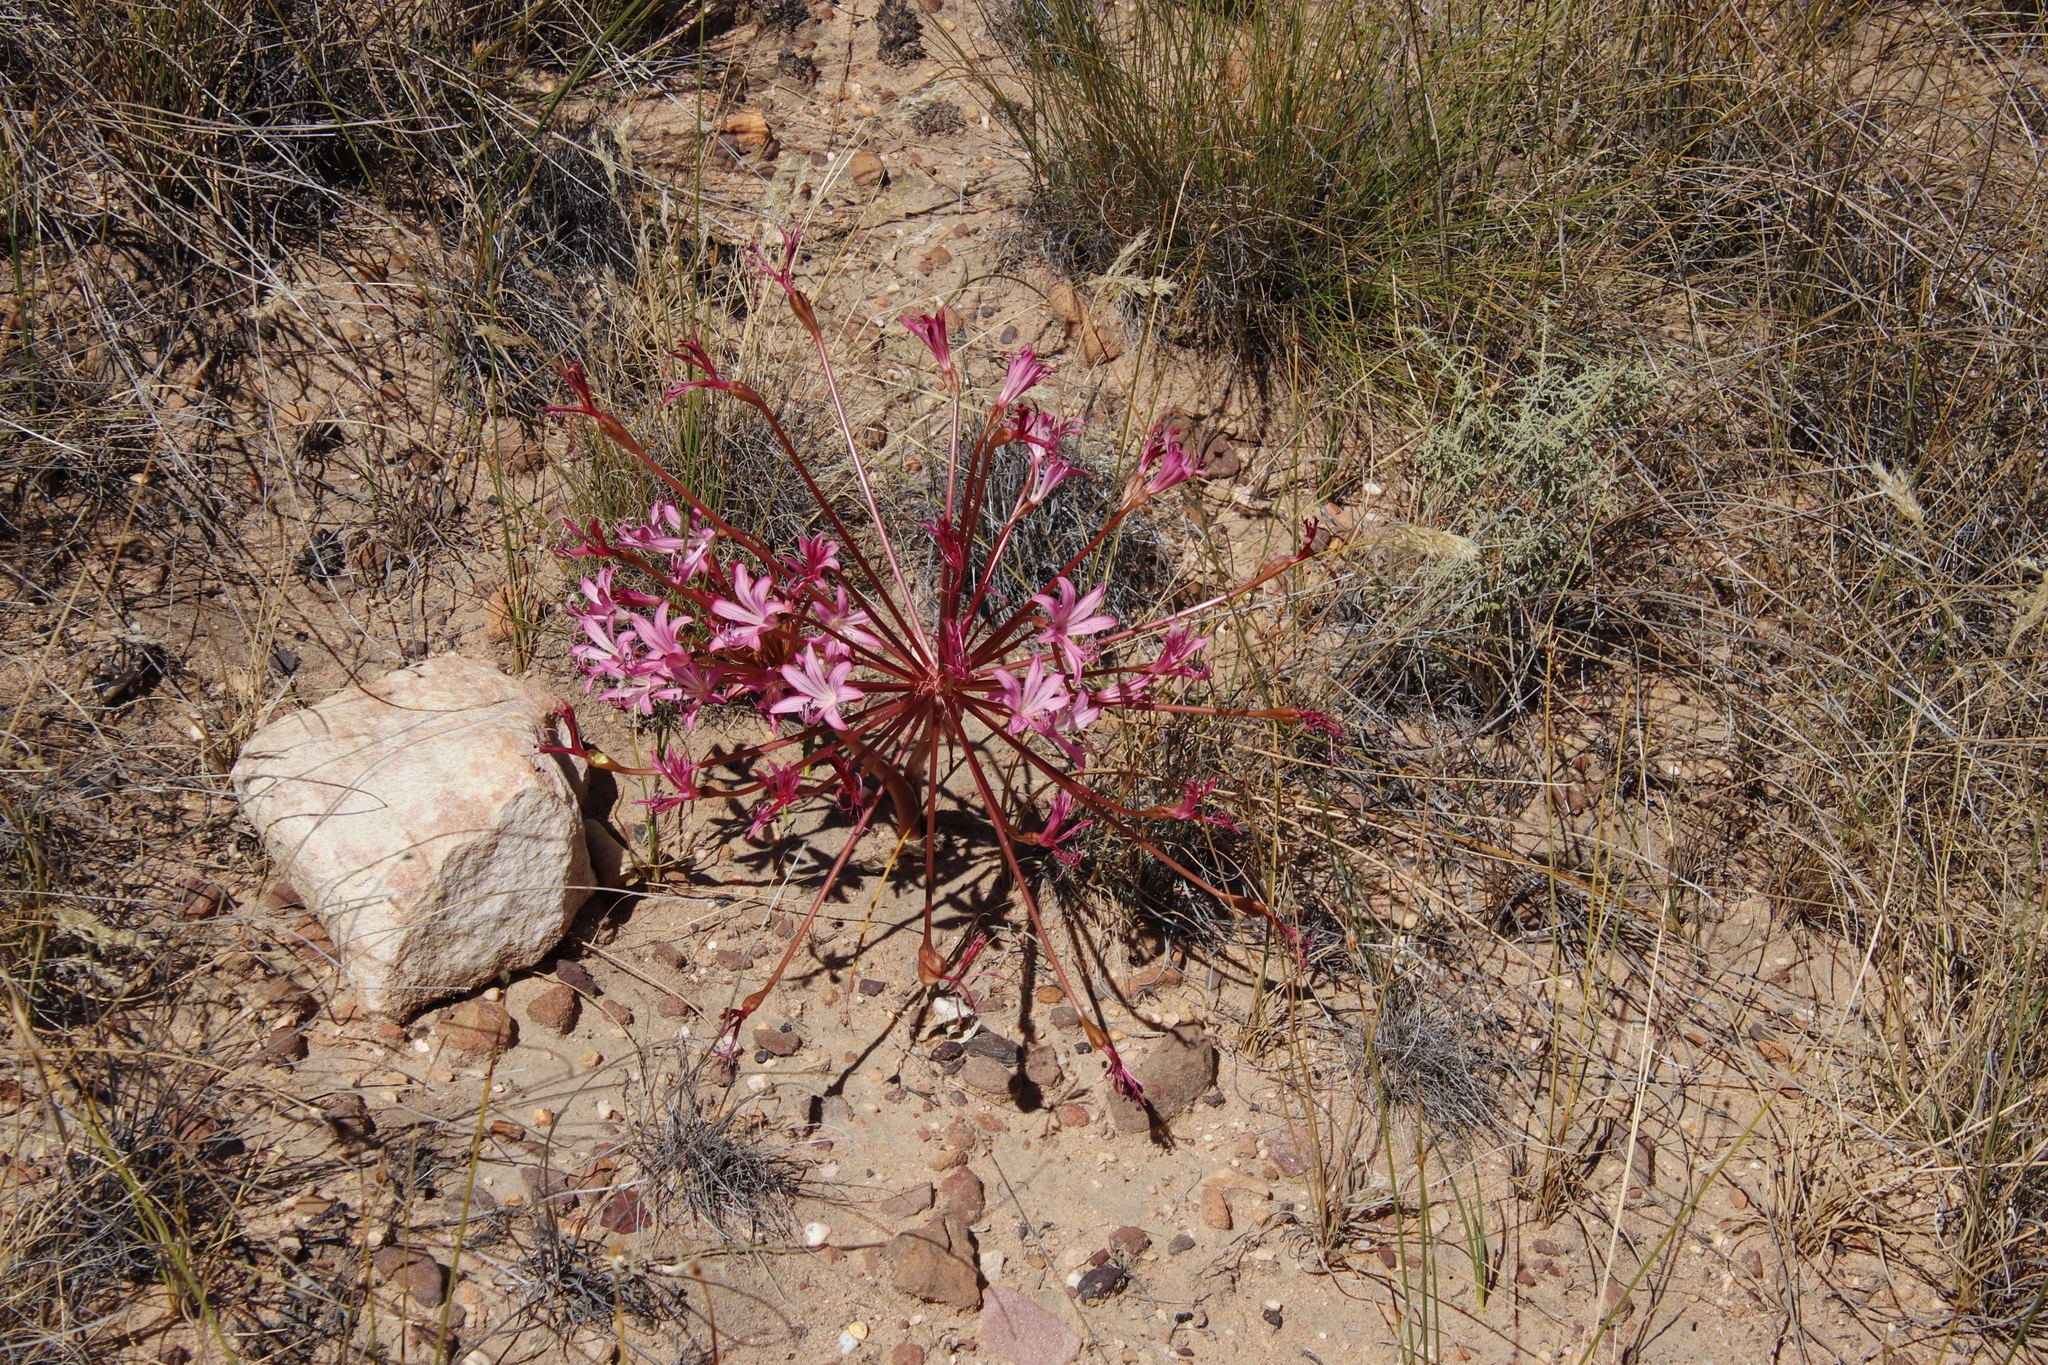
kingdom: Plantae
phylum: Tracheophyta
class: Liliopsida
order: Asparagales
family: Amaryllidaceae
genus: Brunsvigia
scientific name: Brunsvigia nervosa
